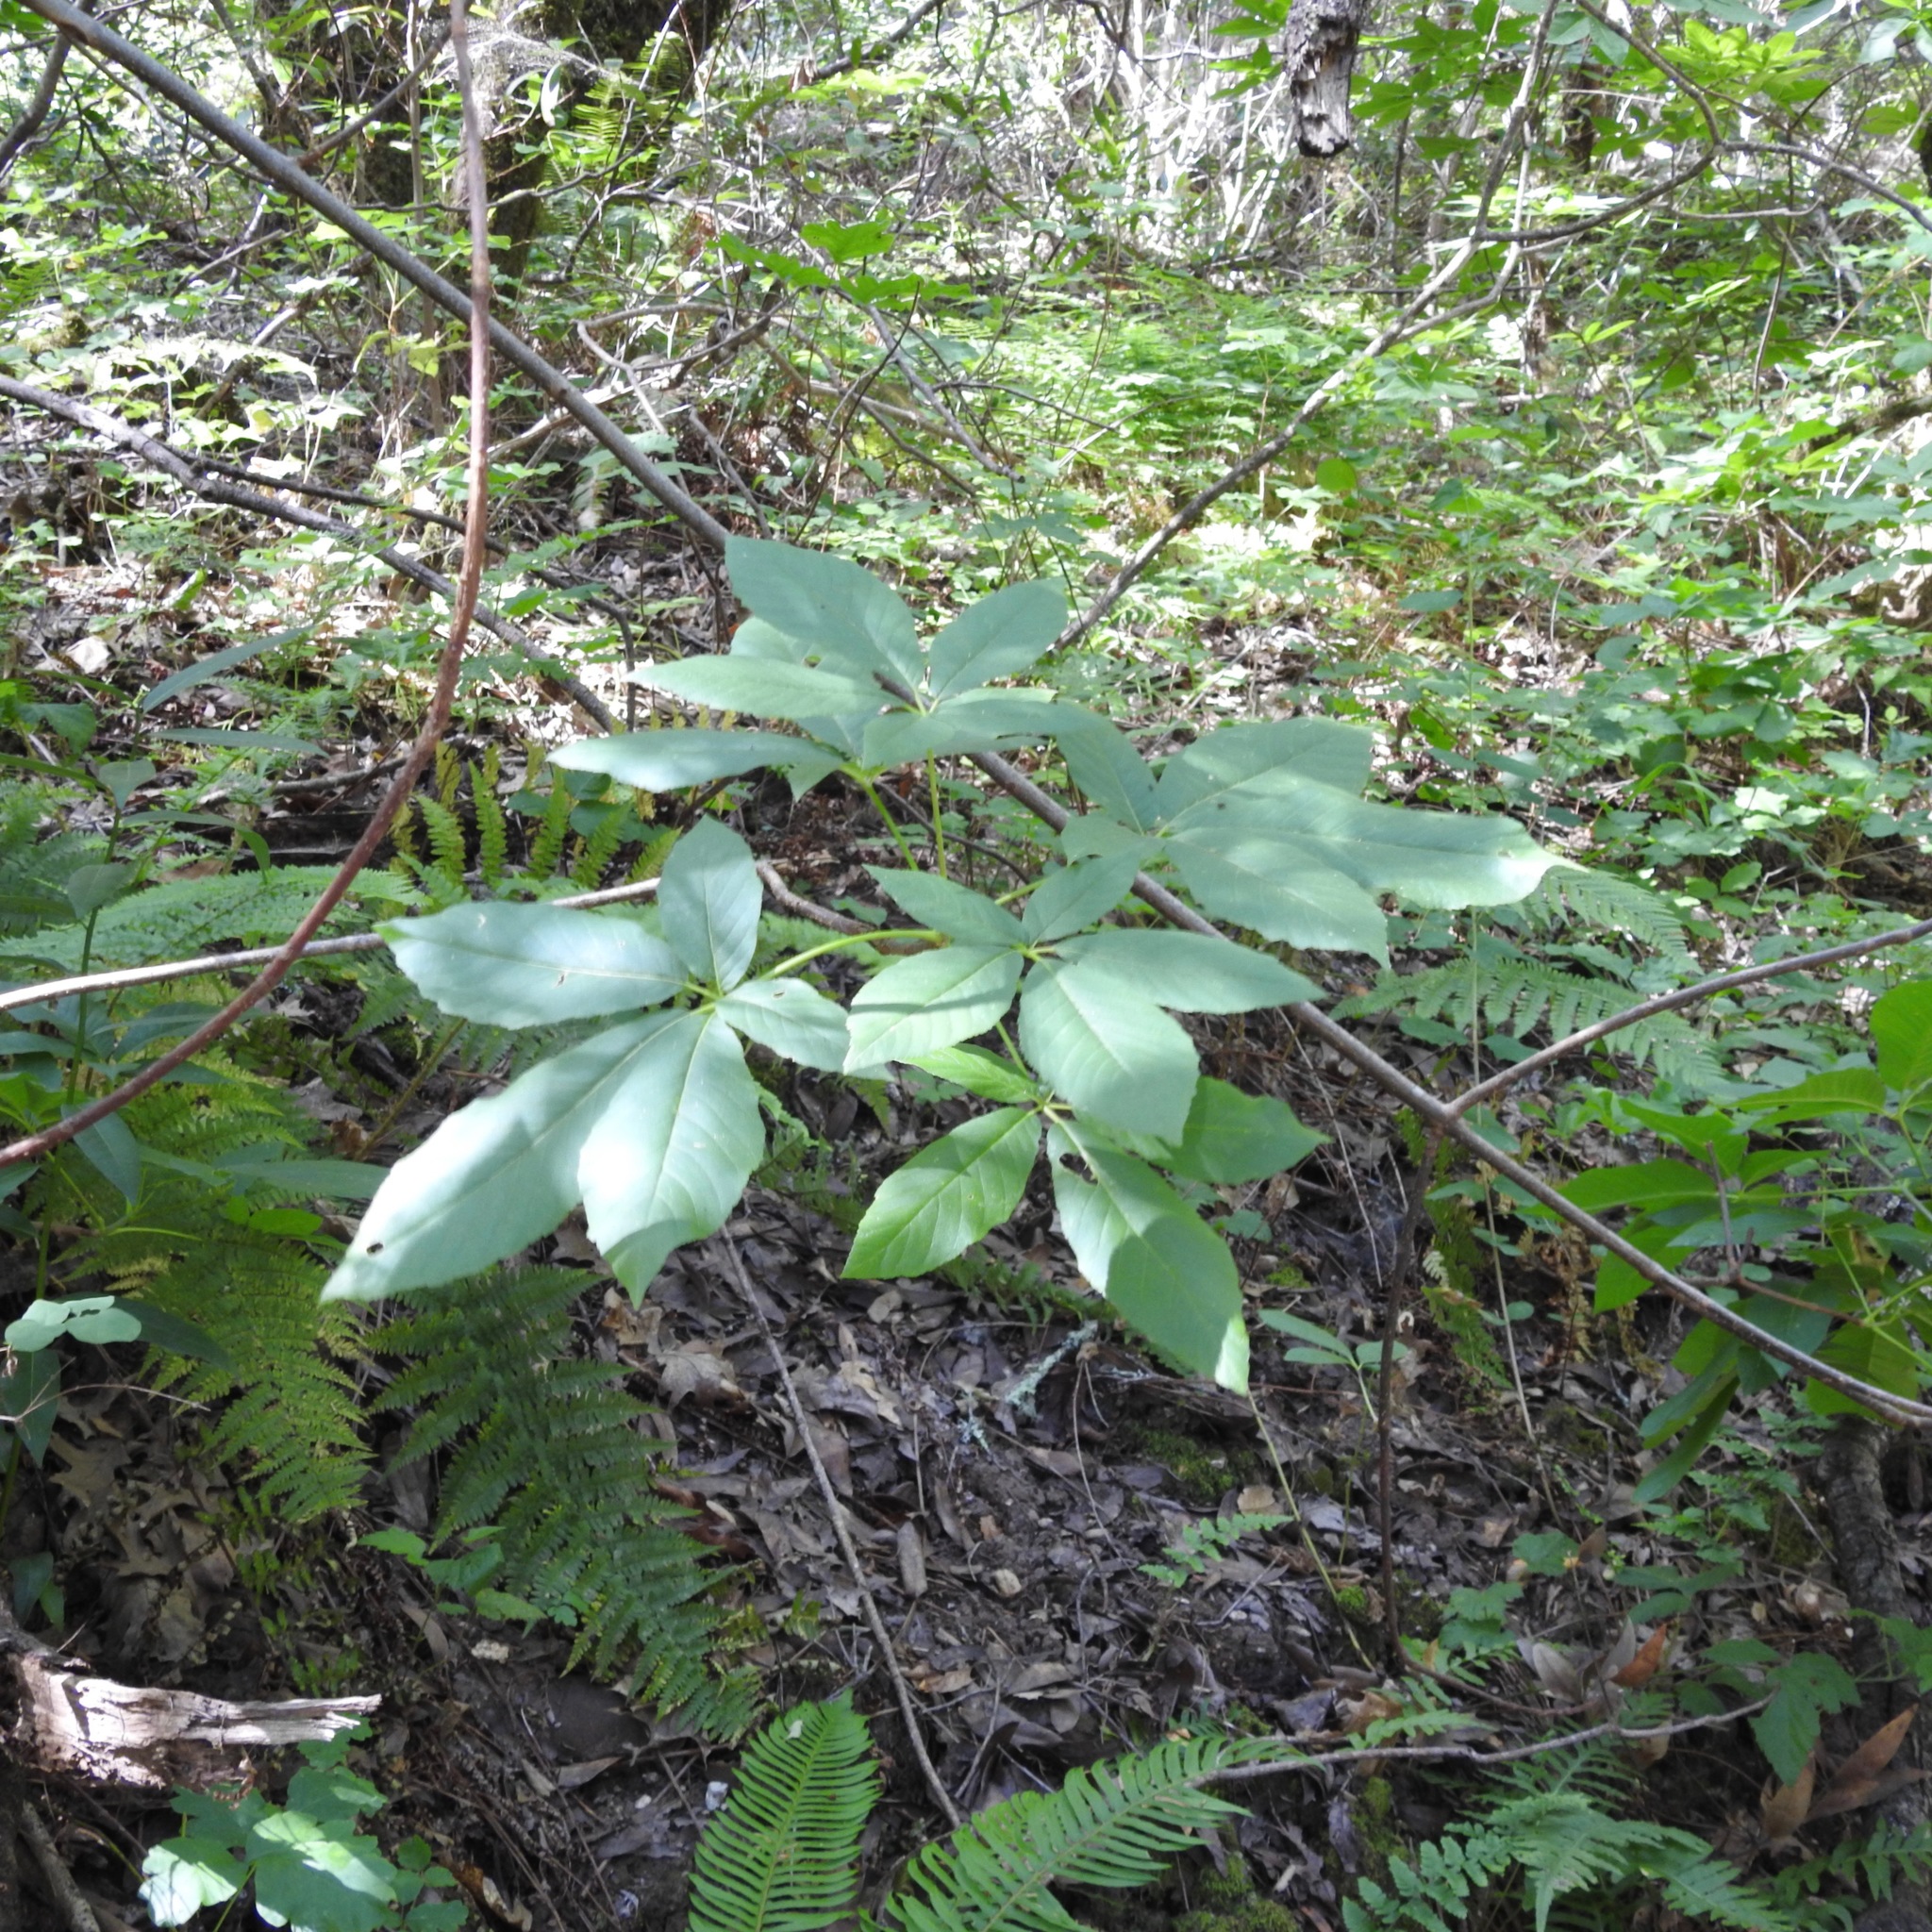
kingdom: Plantae
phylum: Tracheophyta
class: Magnoliopsida
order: Sapindales
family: Sapindaceae
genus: Aesculus
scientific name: Aesculus californica
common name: California buckeye
